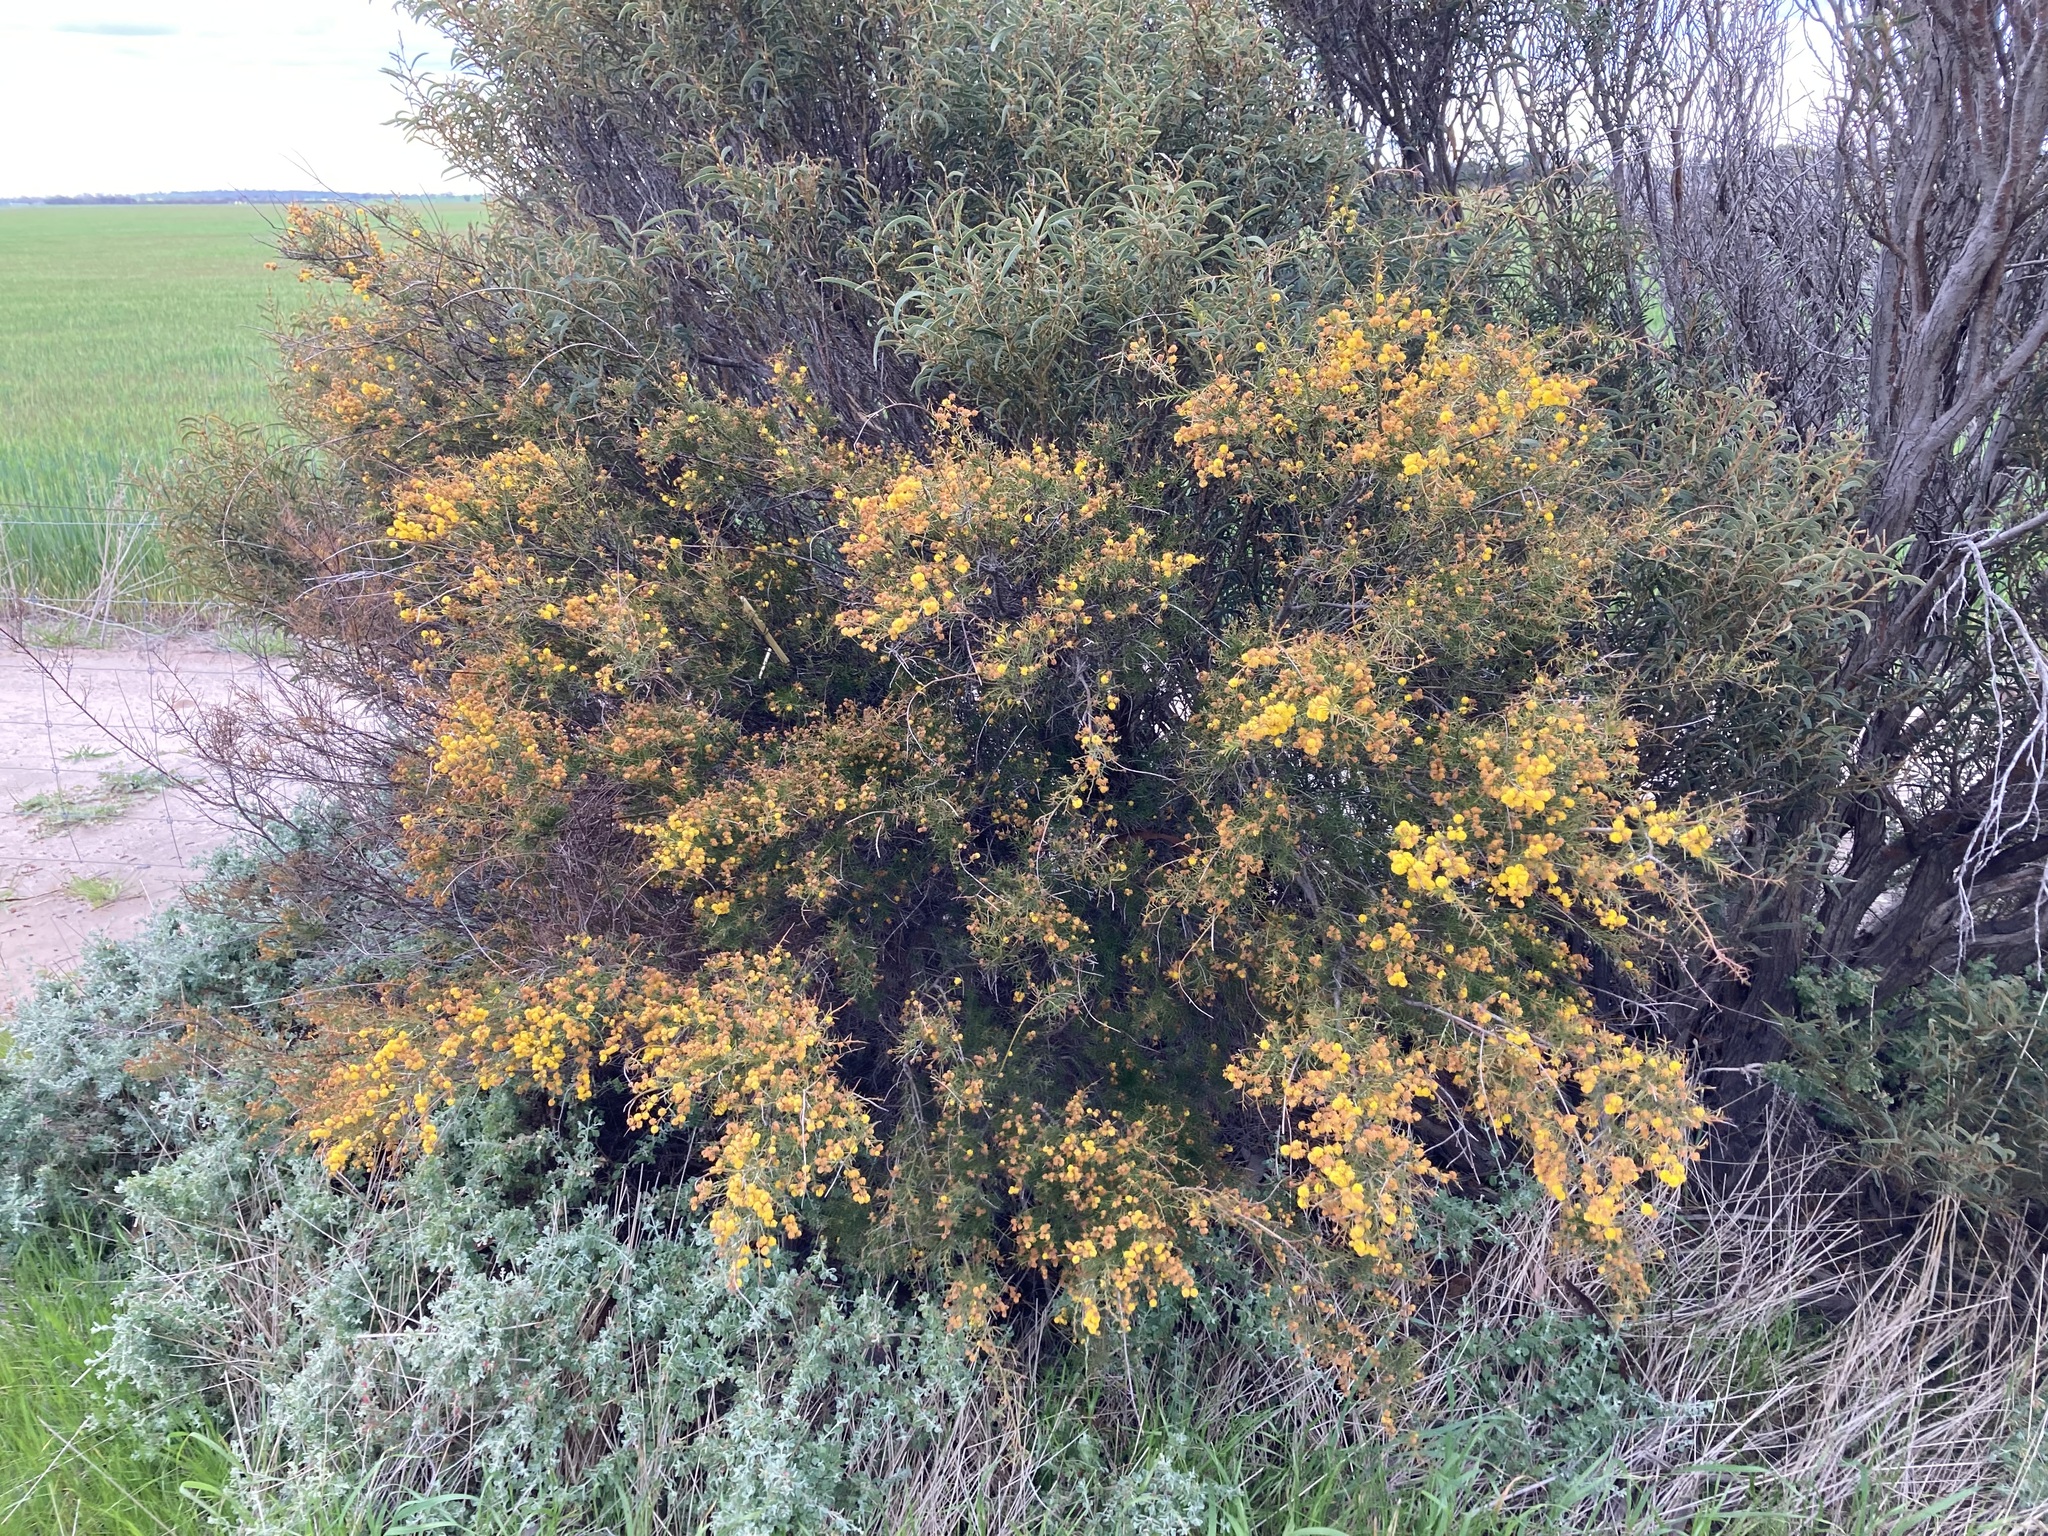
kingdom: Plantae
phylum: Tracheophyta
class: Magnoliopsida
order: Fabales
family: Fabaceae
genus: Acacia
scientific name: Acacia acuaria
